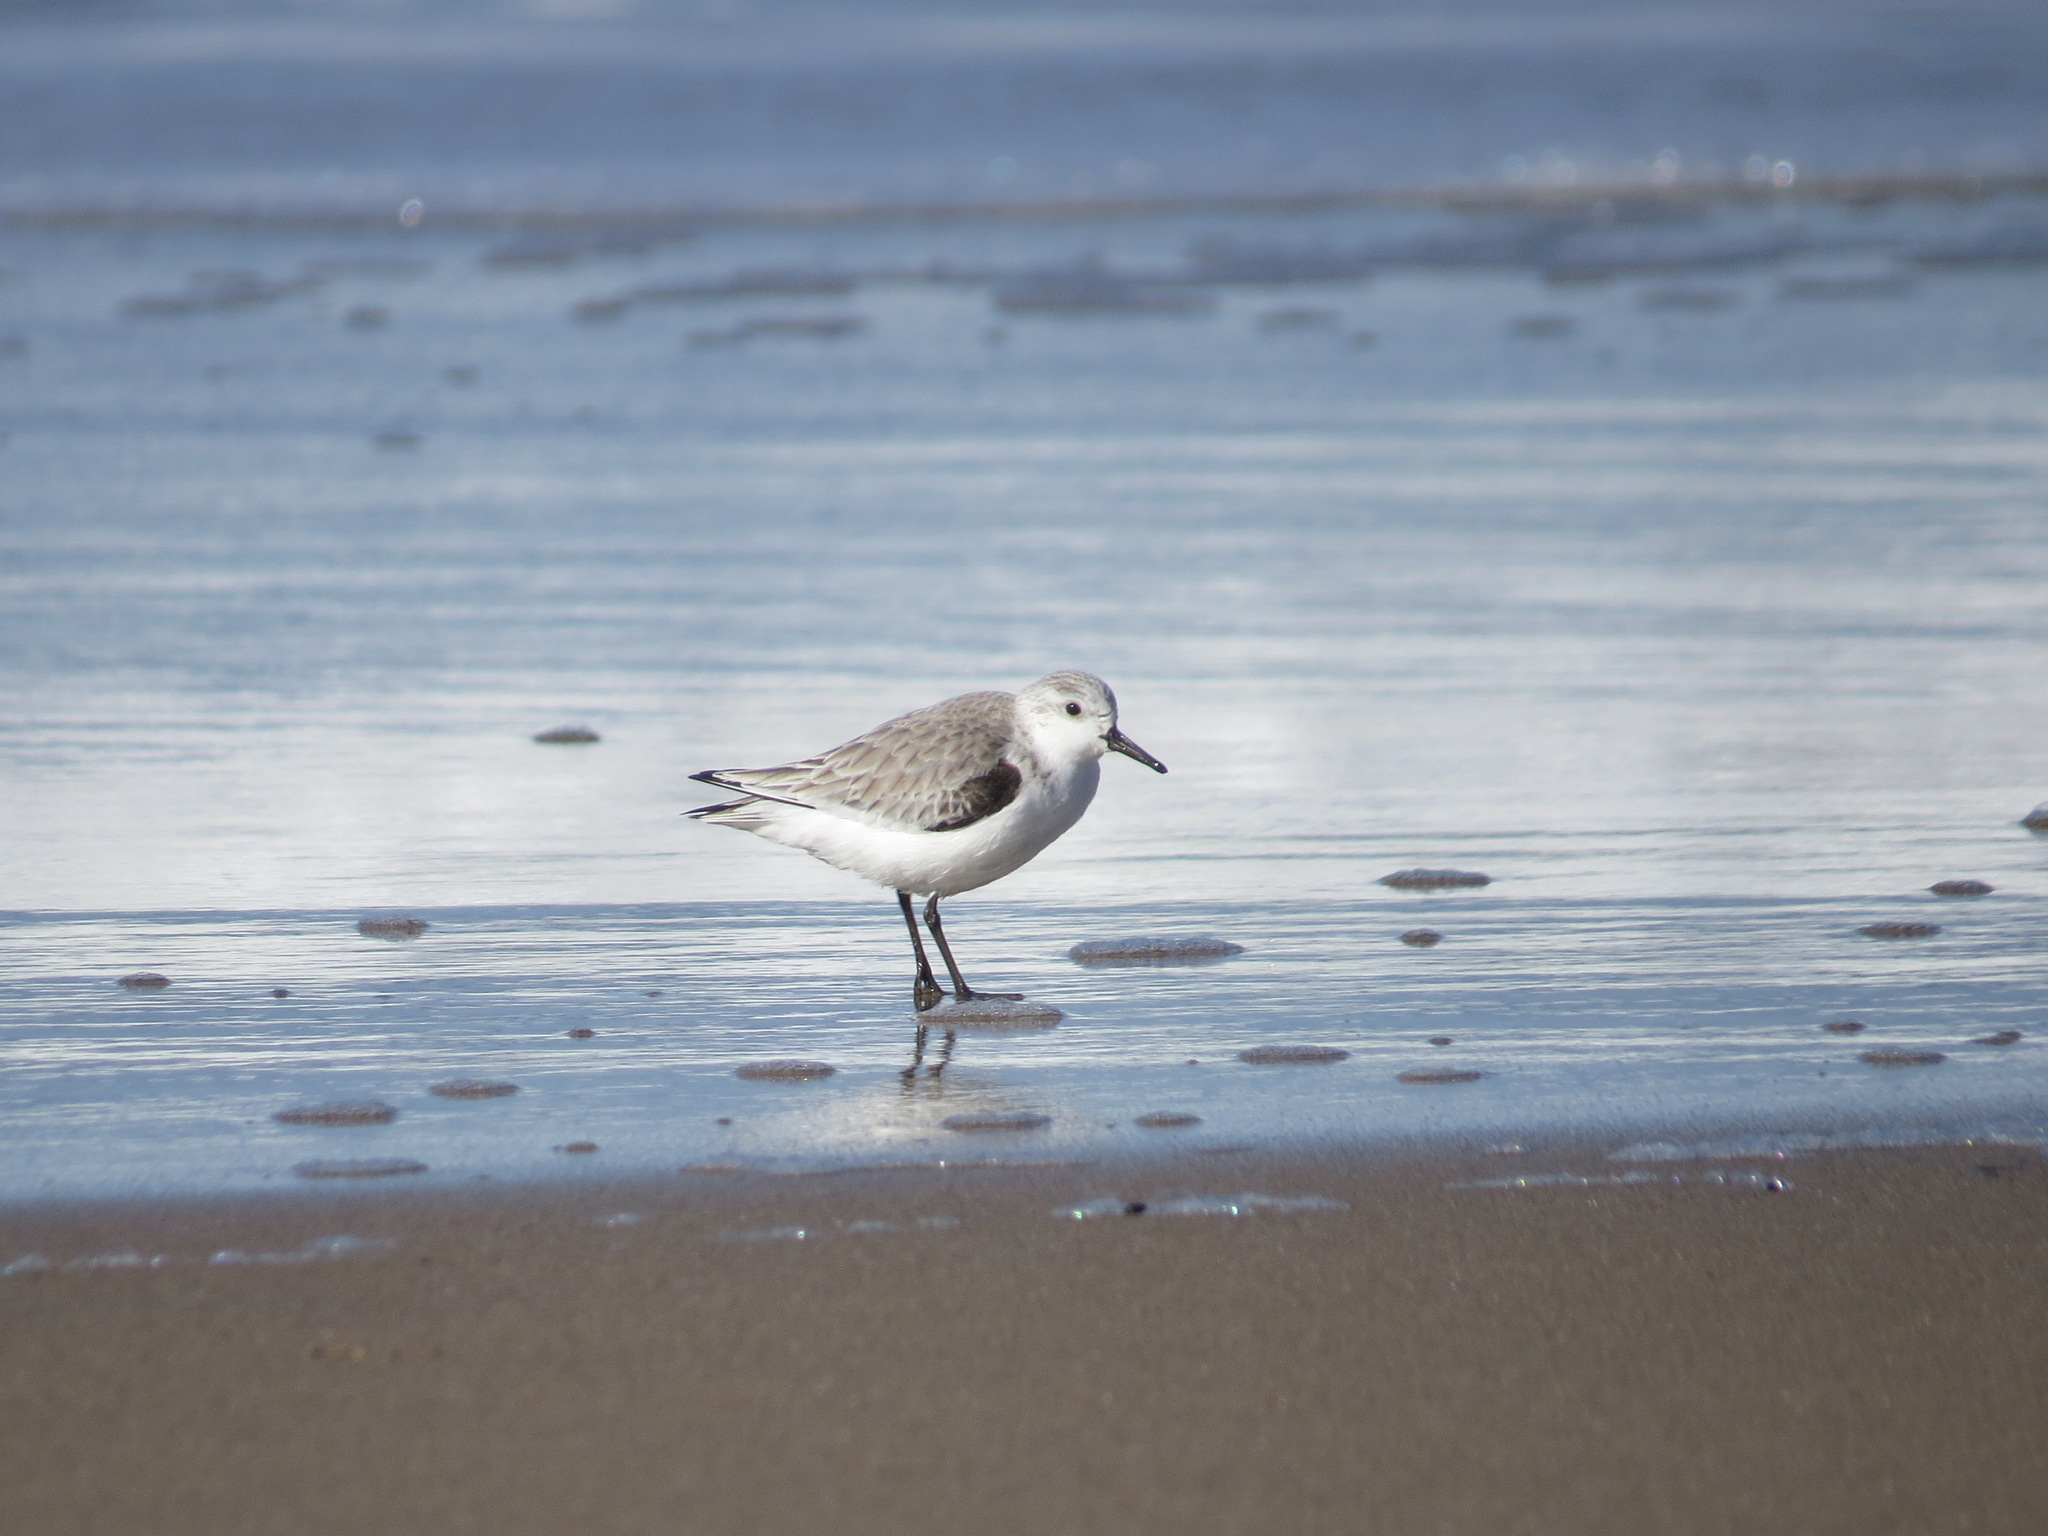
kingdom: Animalia
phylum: Chordata
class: Aves
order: Charadriiformes
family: Scolopacidae
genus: Calidris
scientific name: Calidris alba
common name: Sanderling
